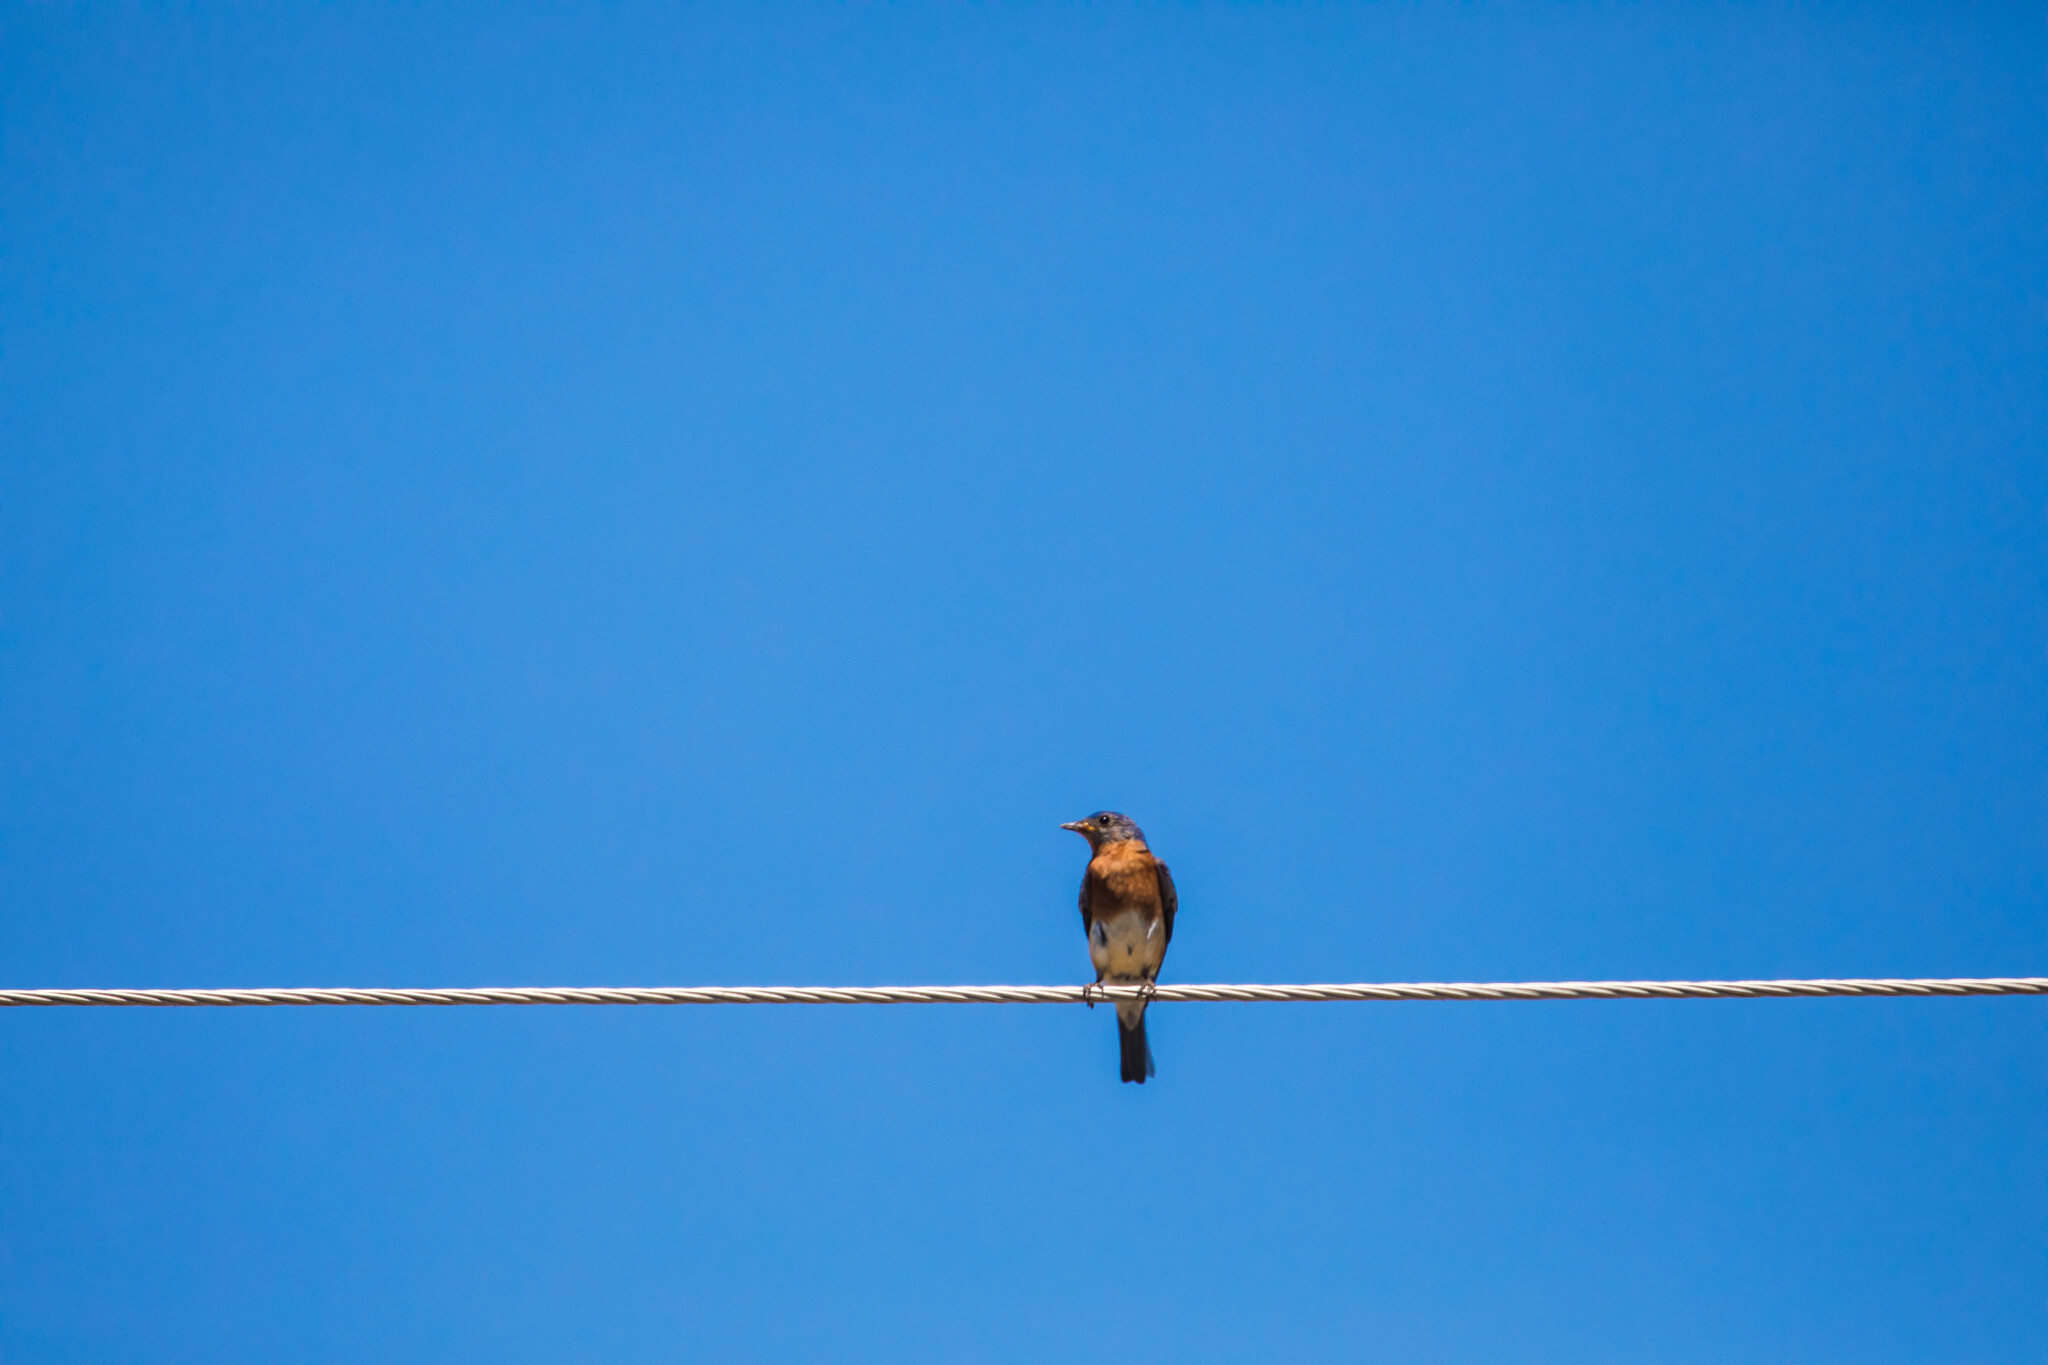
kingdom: Animalia
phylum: Chordata
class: Aves
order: Passeriformes
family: Turdidae
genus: Sialia
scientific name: Sialia sialis
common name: Eastern bluebird
